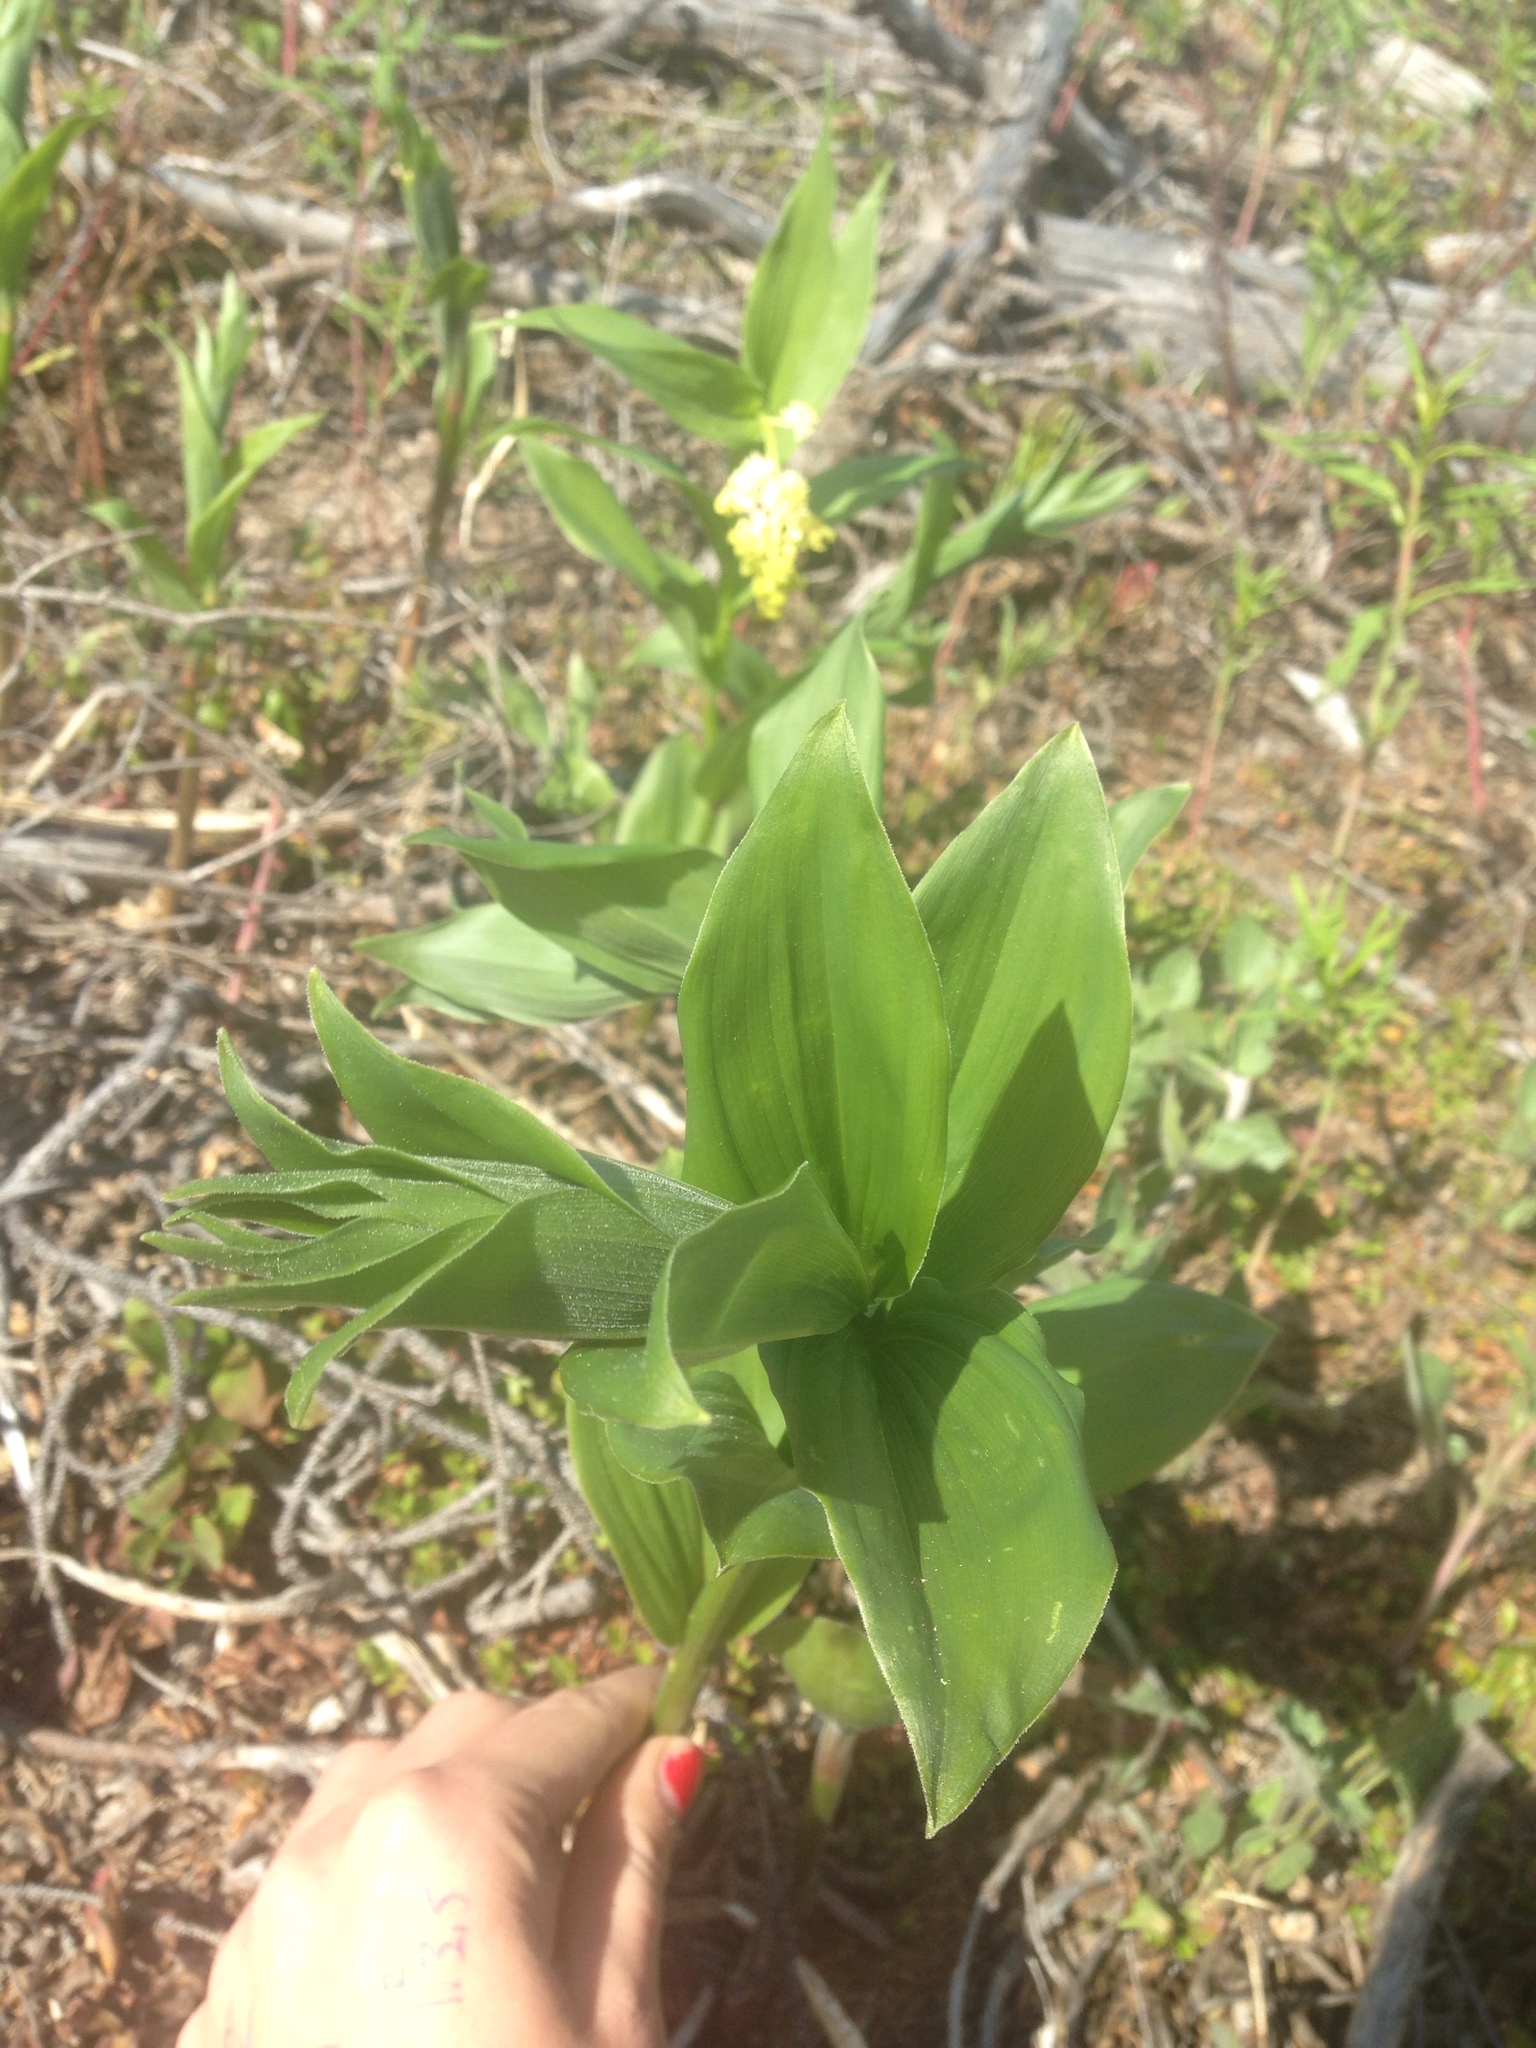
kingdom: Plantae
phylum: Tracheophyta
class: Liliopsida
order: Asparagales
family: Asparagaceae
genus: Maianthemum
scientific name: Maianthemum racemosum
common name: False spikenard
